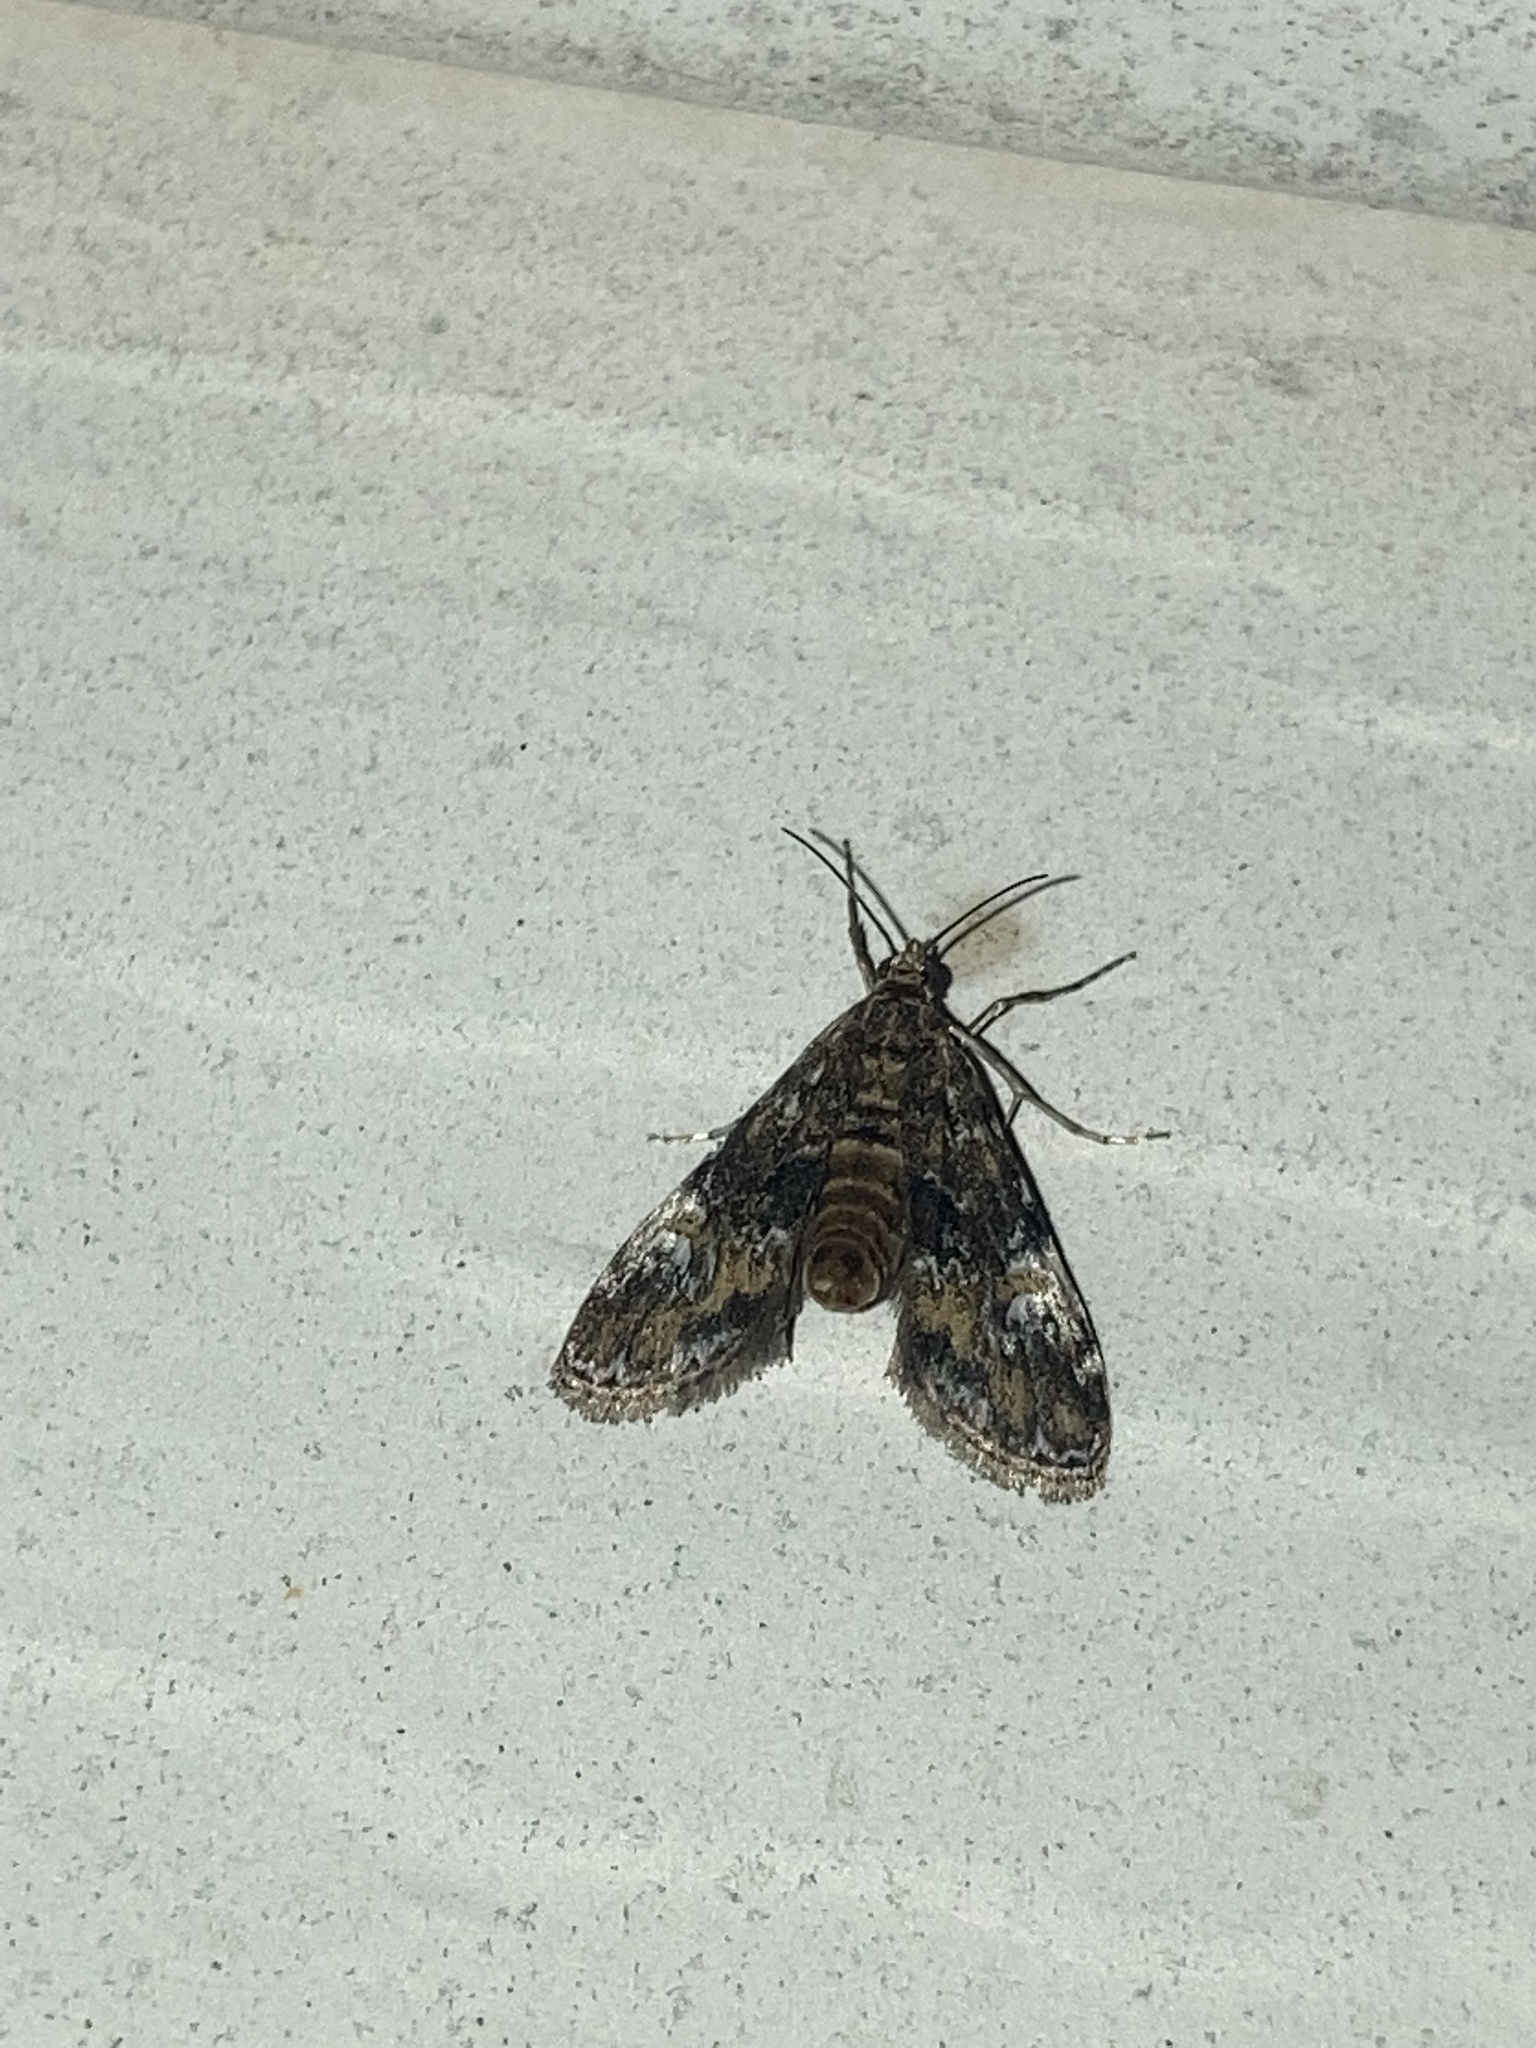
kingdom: Animalia
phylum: Arthropoda
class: Insecta
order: Lepidoptera
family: Crambidae
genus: Elophila
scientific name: Elophila obliteralis
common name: Waterlily leafcutter moth
